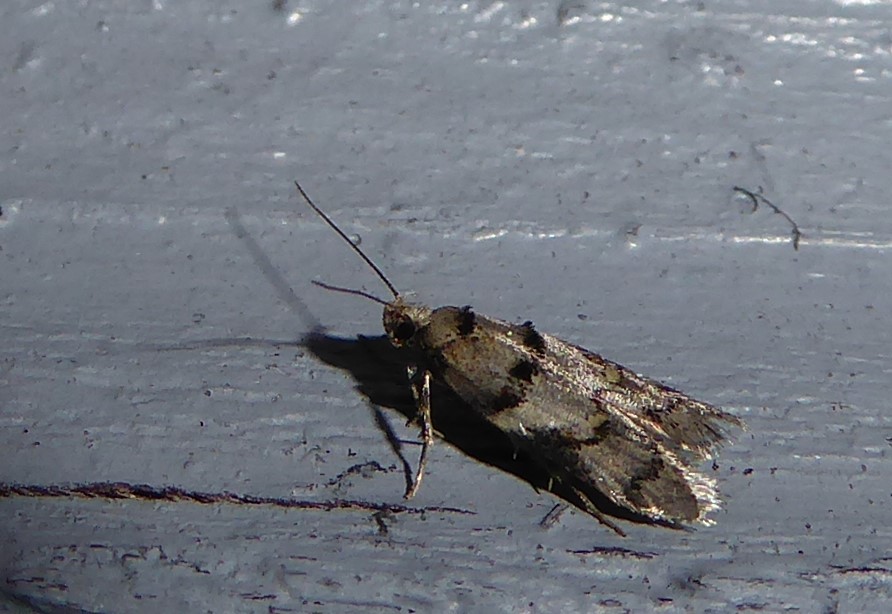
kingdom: Animalia
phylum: Arthropoda
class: Insecta
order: Lepidoptera
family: Oecophoridae
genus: Trachypepla
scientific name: Trachypepla contritella
